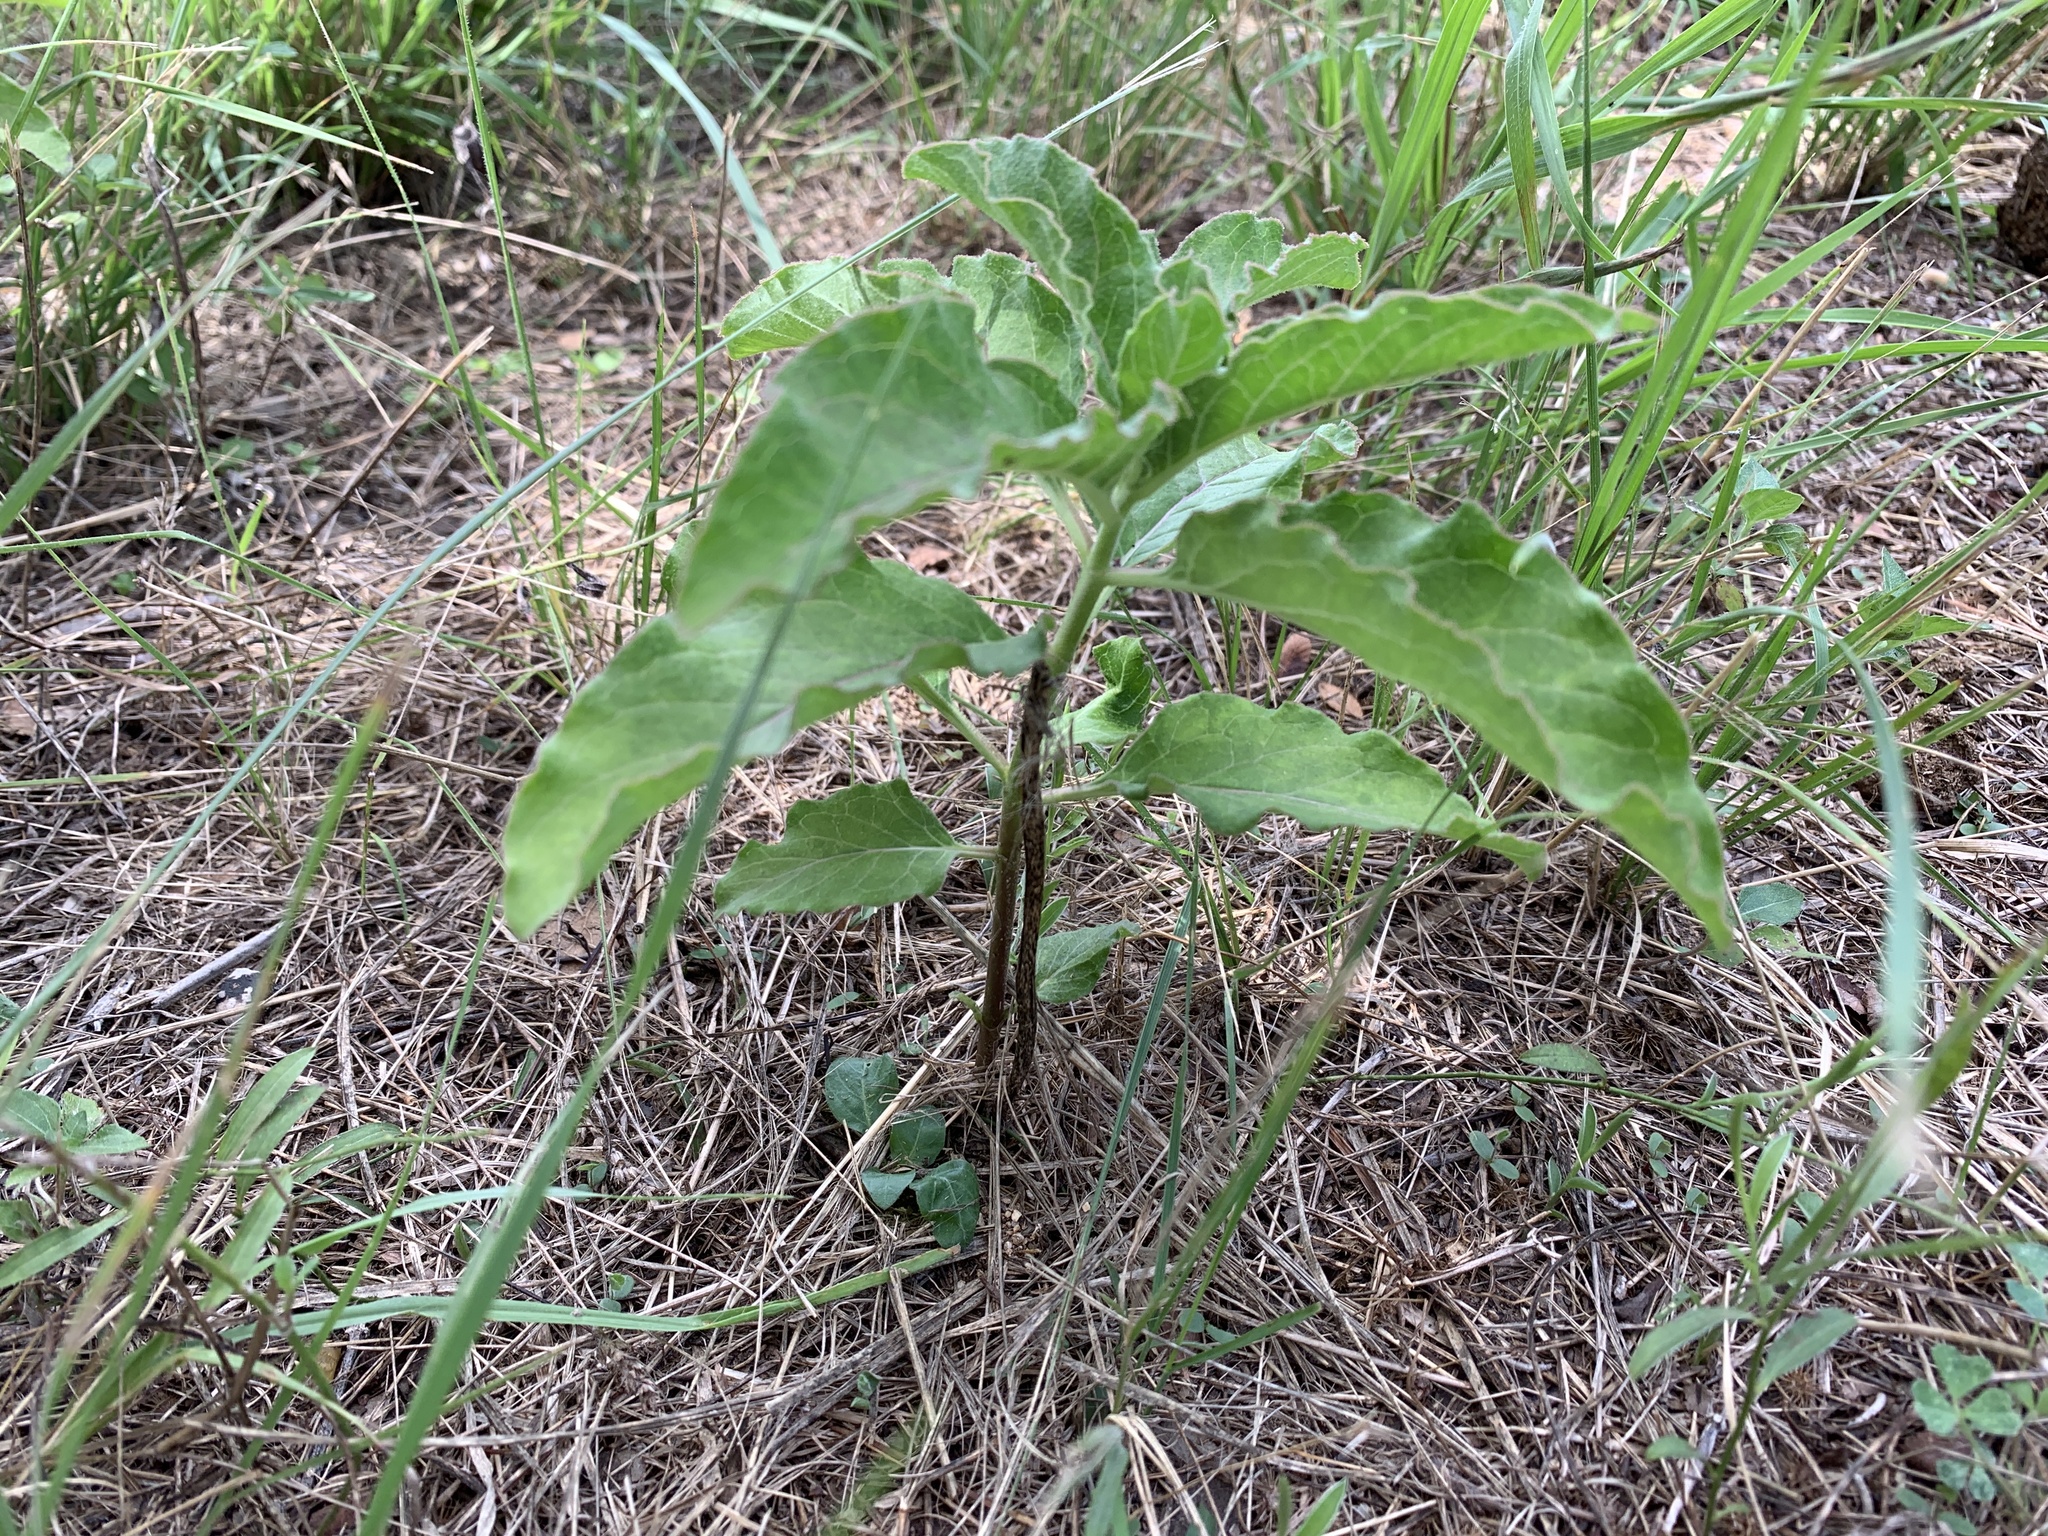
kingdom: Plantae
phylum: Tracheophyta
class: Magnoliopsida
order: Gentianales
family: Apocynaceae
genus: Asclepias
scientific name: Asclepias oenotheroides
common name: Zizotes milkweed
